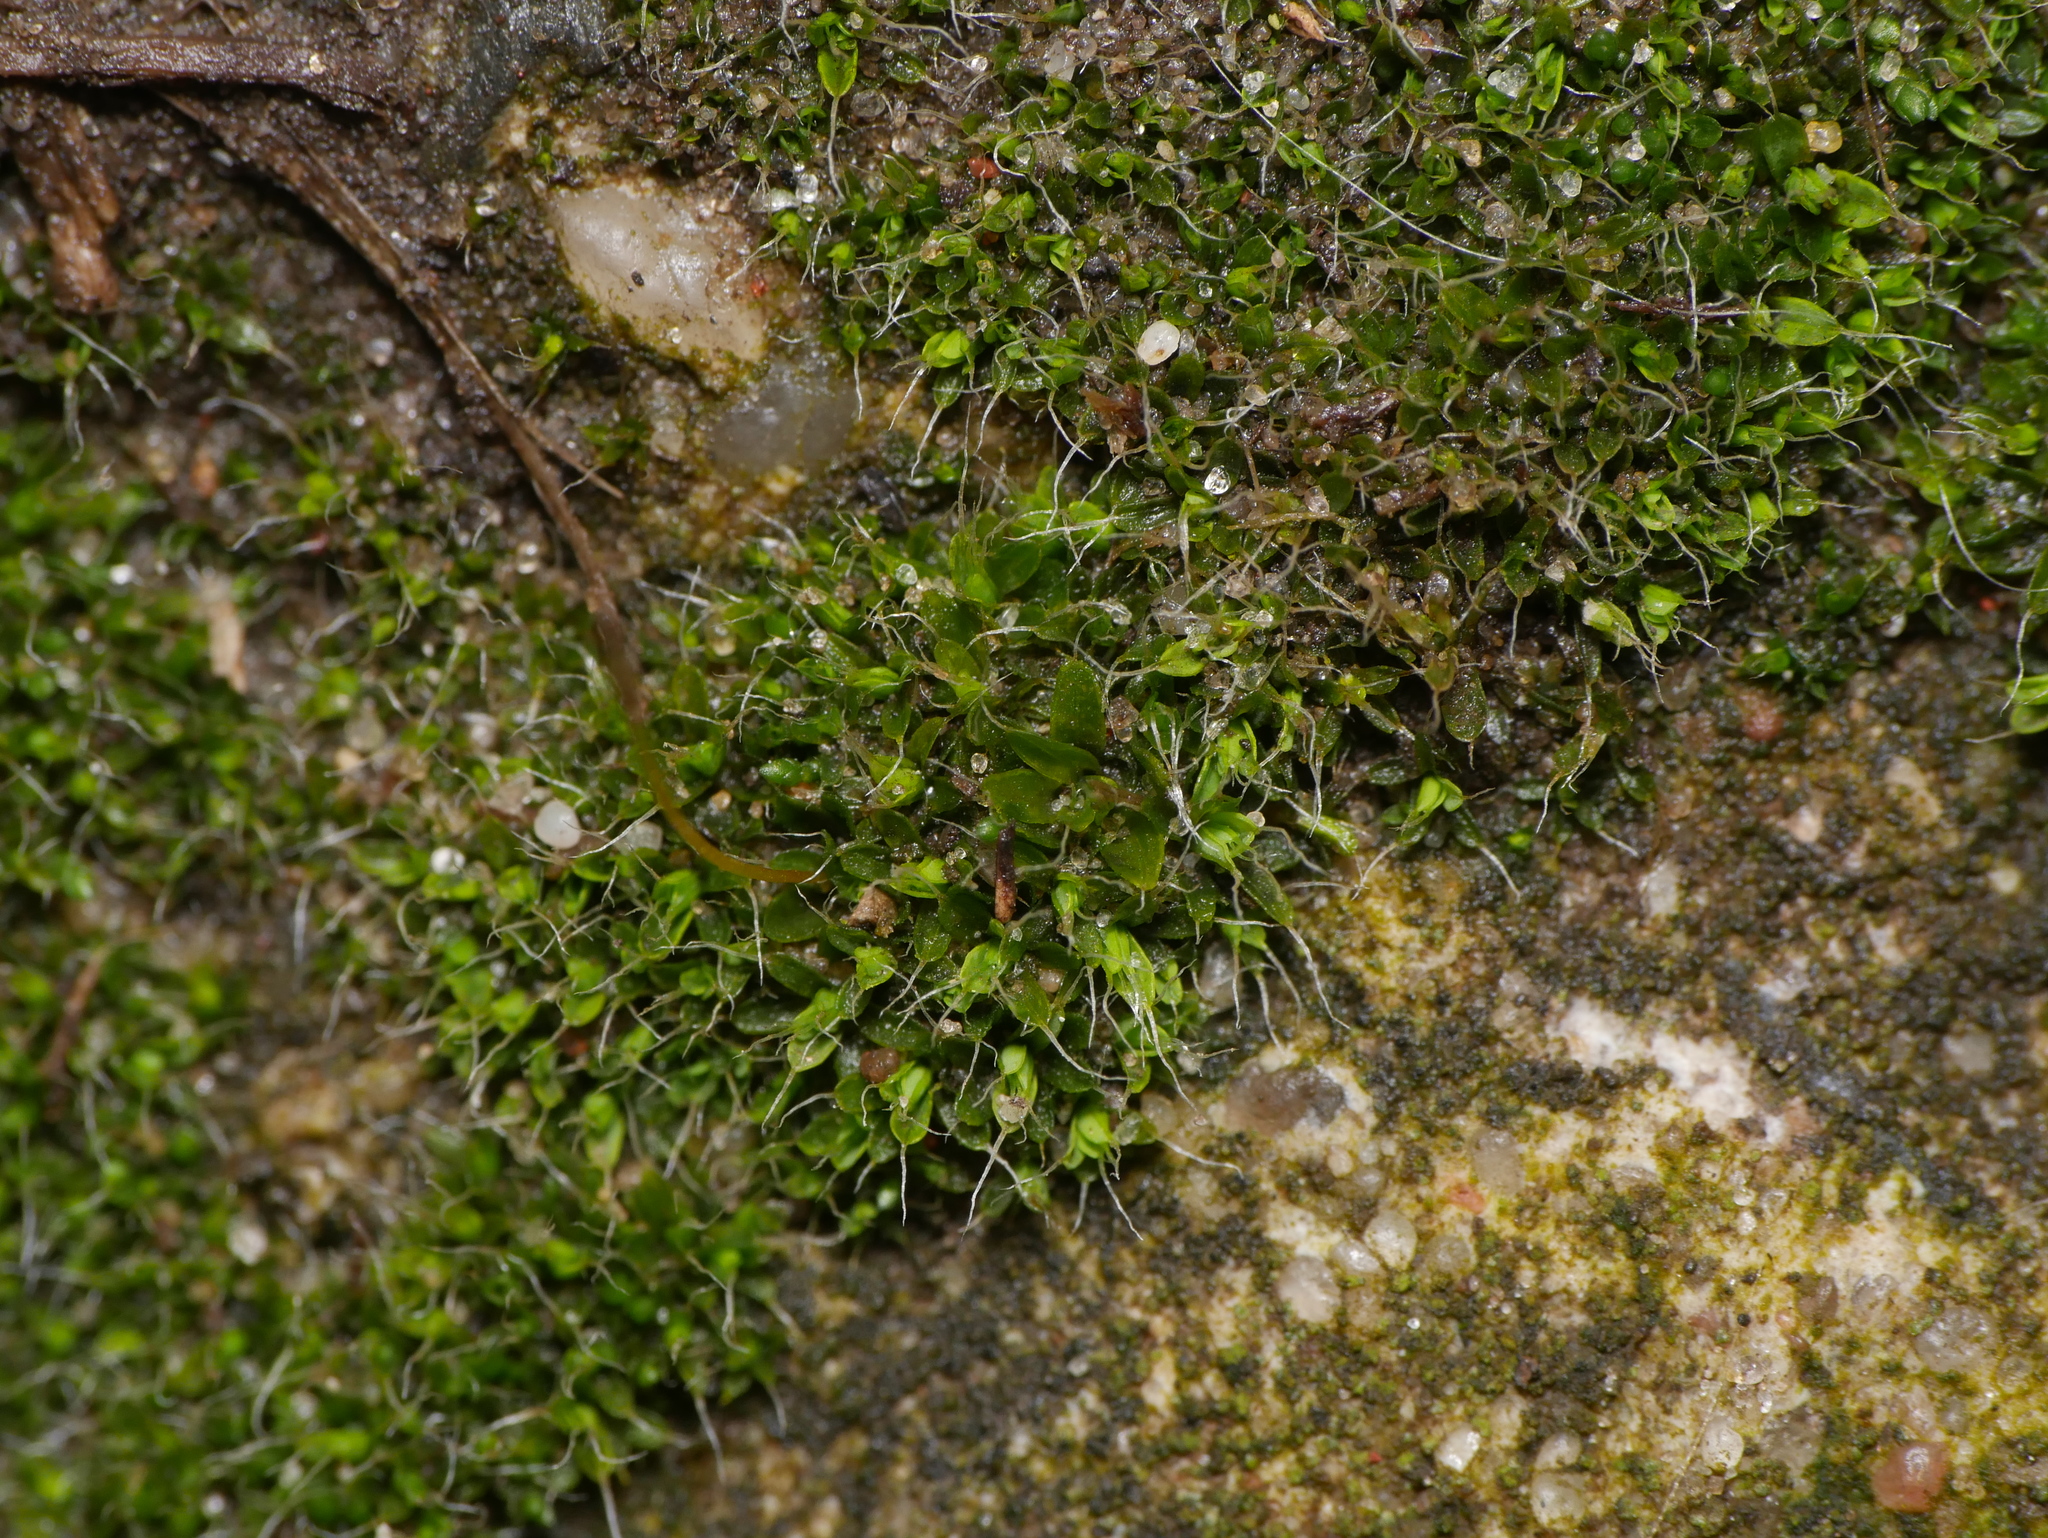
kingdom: Plantae
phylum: Bryophyta
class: Bryopsida
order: Pottiales
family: Pottiaceae
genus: Tortula
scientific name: Tortula muralis
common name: Wall screw-moss
